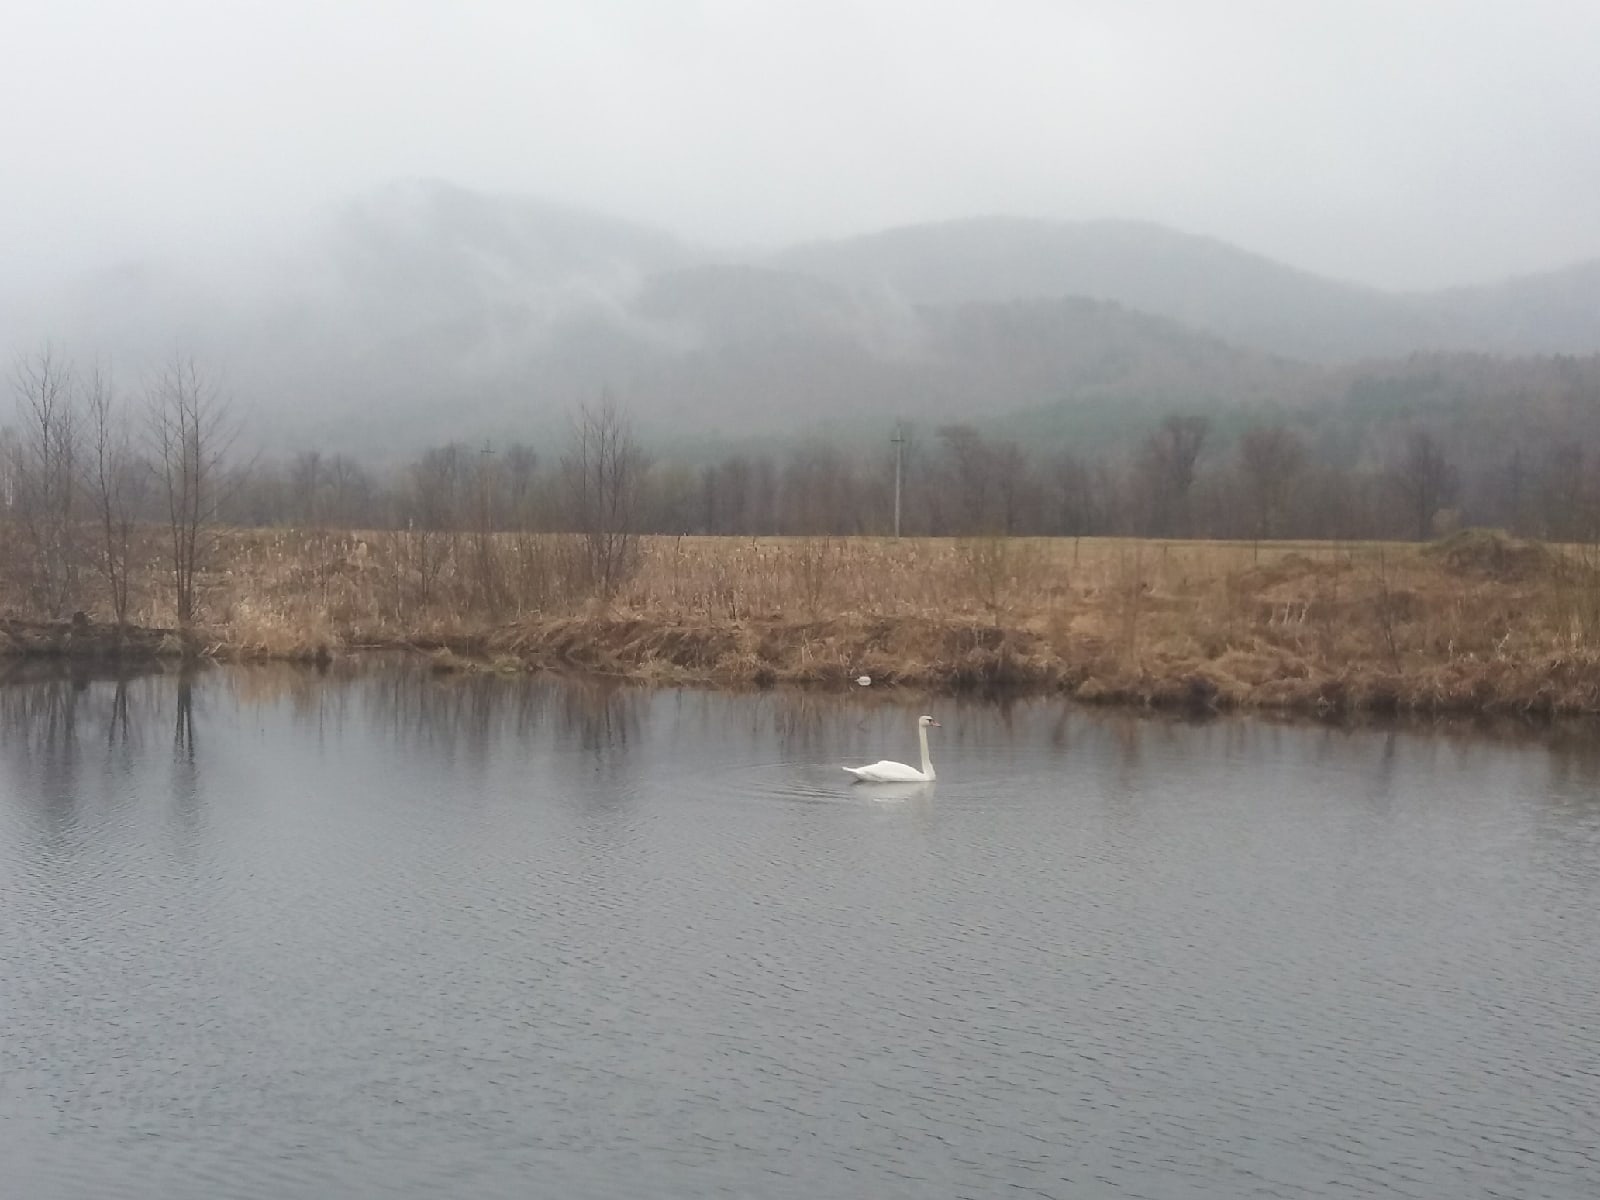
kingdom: Animalia
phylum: Chordata
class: Aves
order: Anseriformes
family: Anatidae
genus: Cygnus
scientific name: Cygnus olor
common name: Mute swan
